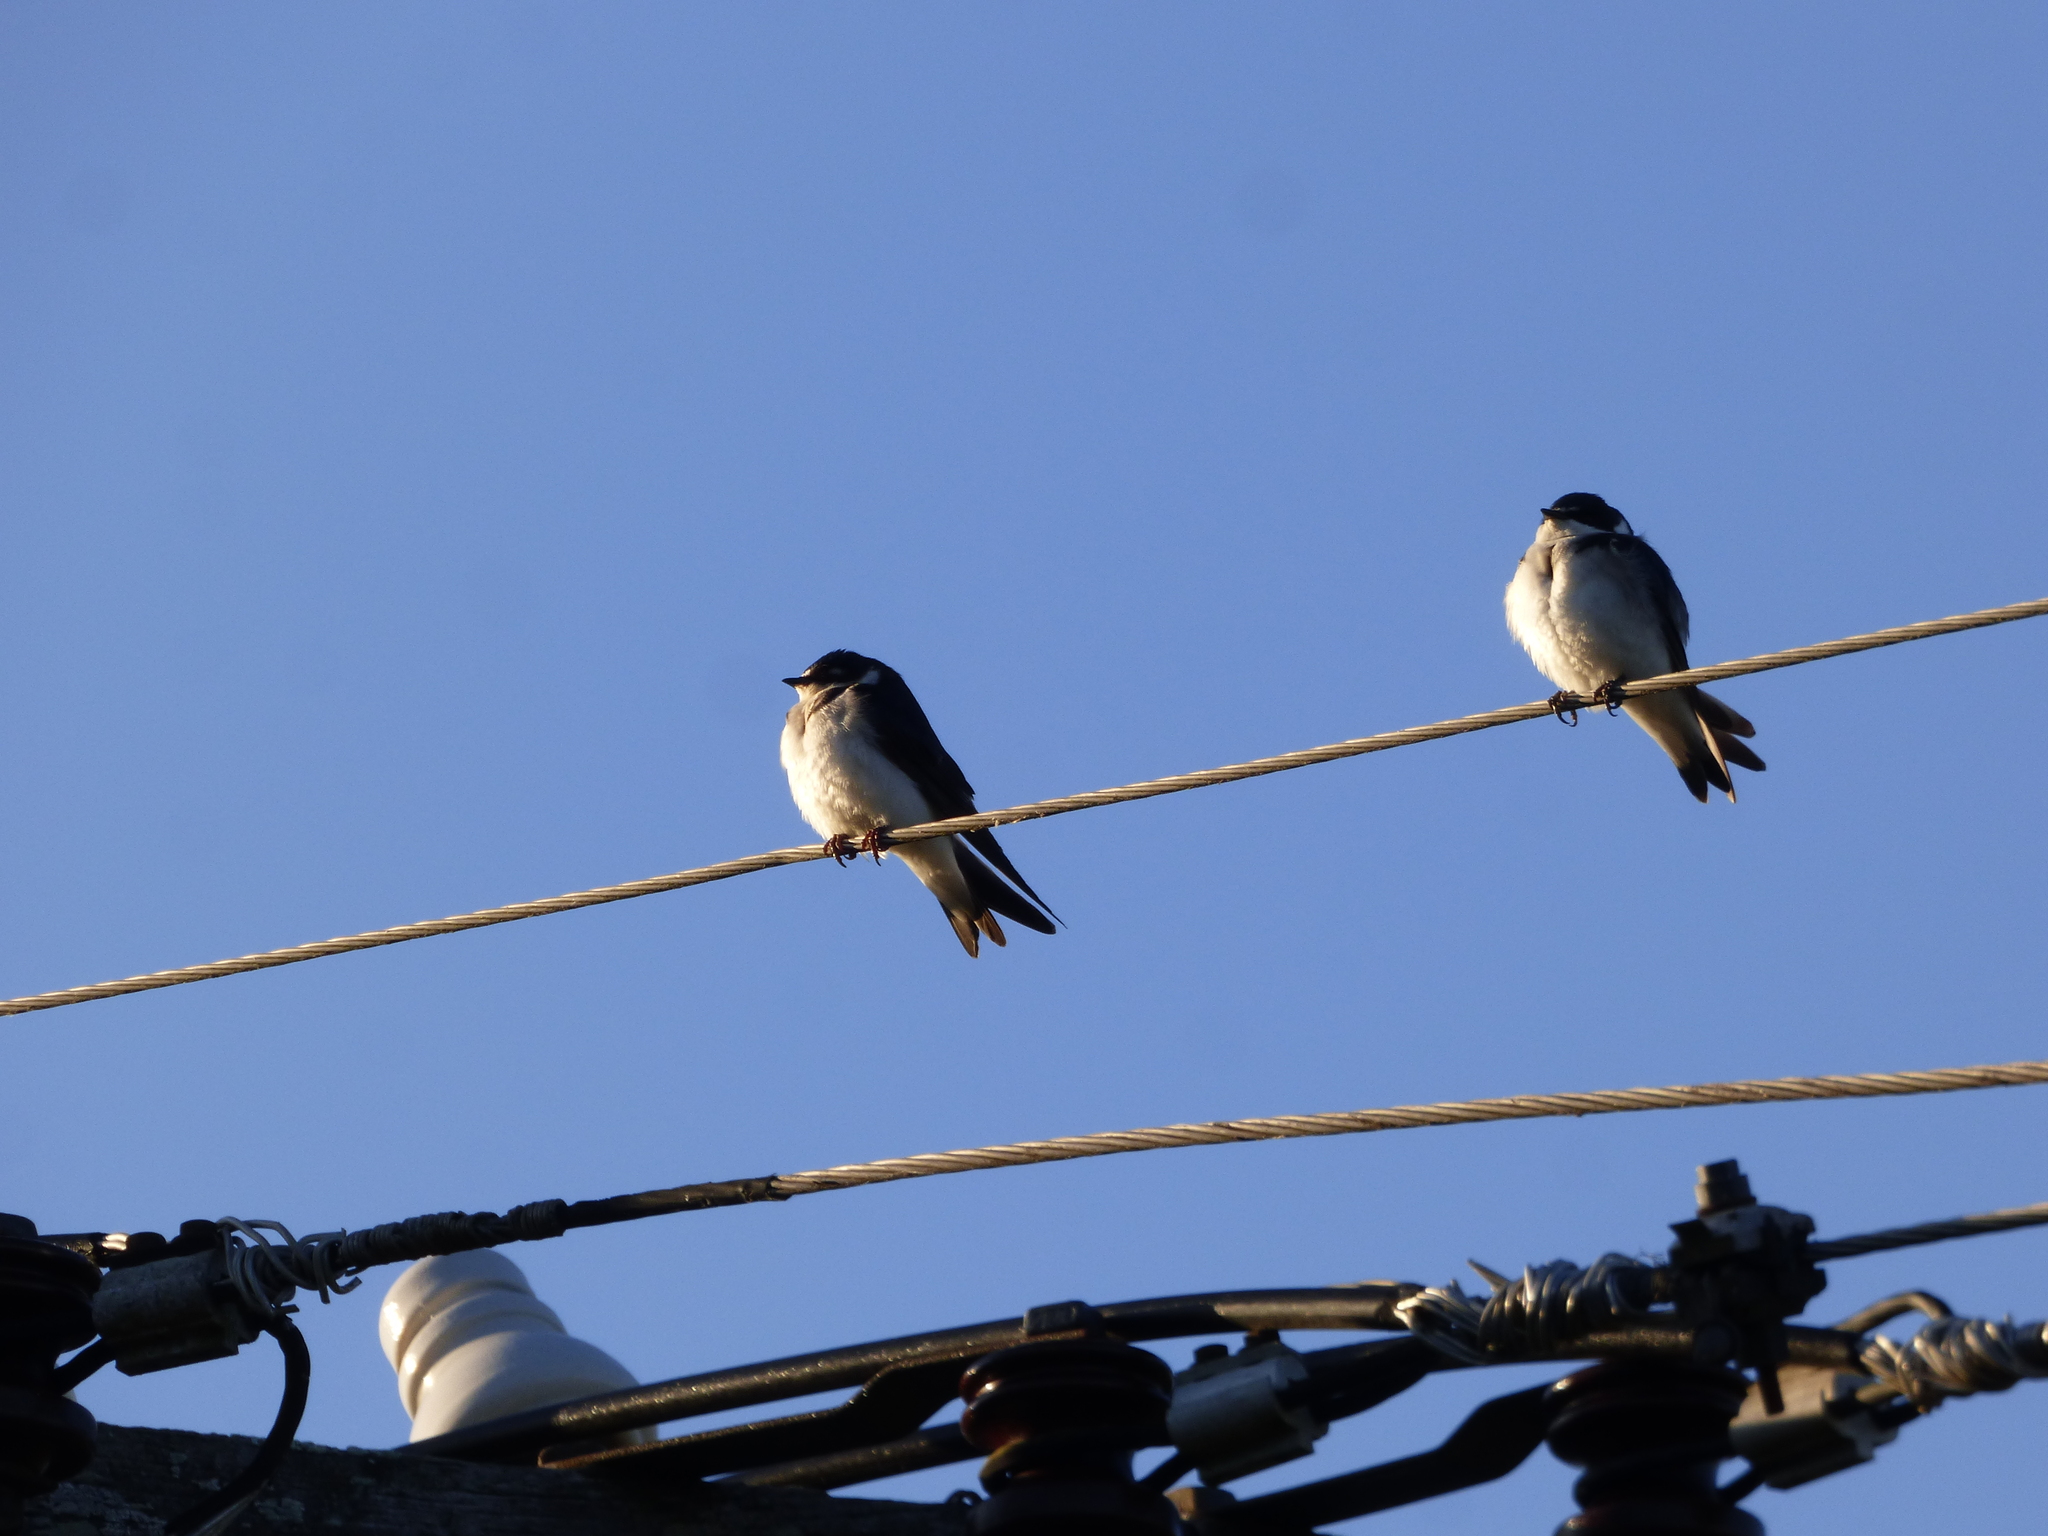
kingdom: Animalia
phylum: Chordata
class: Aves
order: Passeriformes
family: Hirundinidae
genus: Tachycineta
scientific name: Tachycineta leucorrhoa
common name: White-rumped swallow
